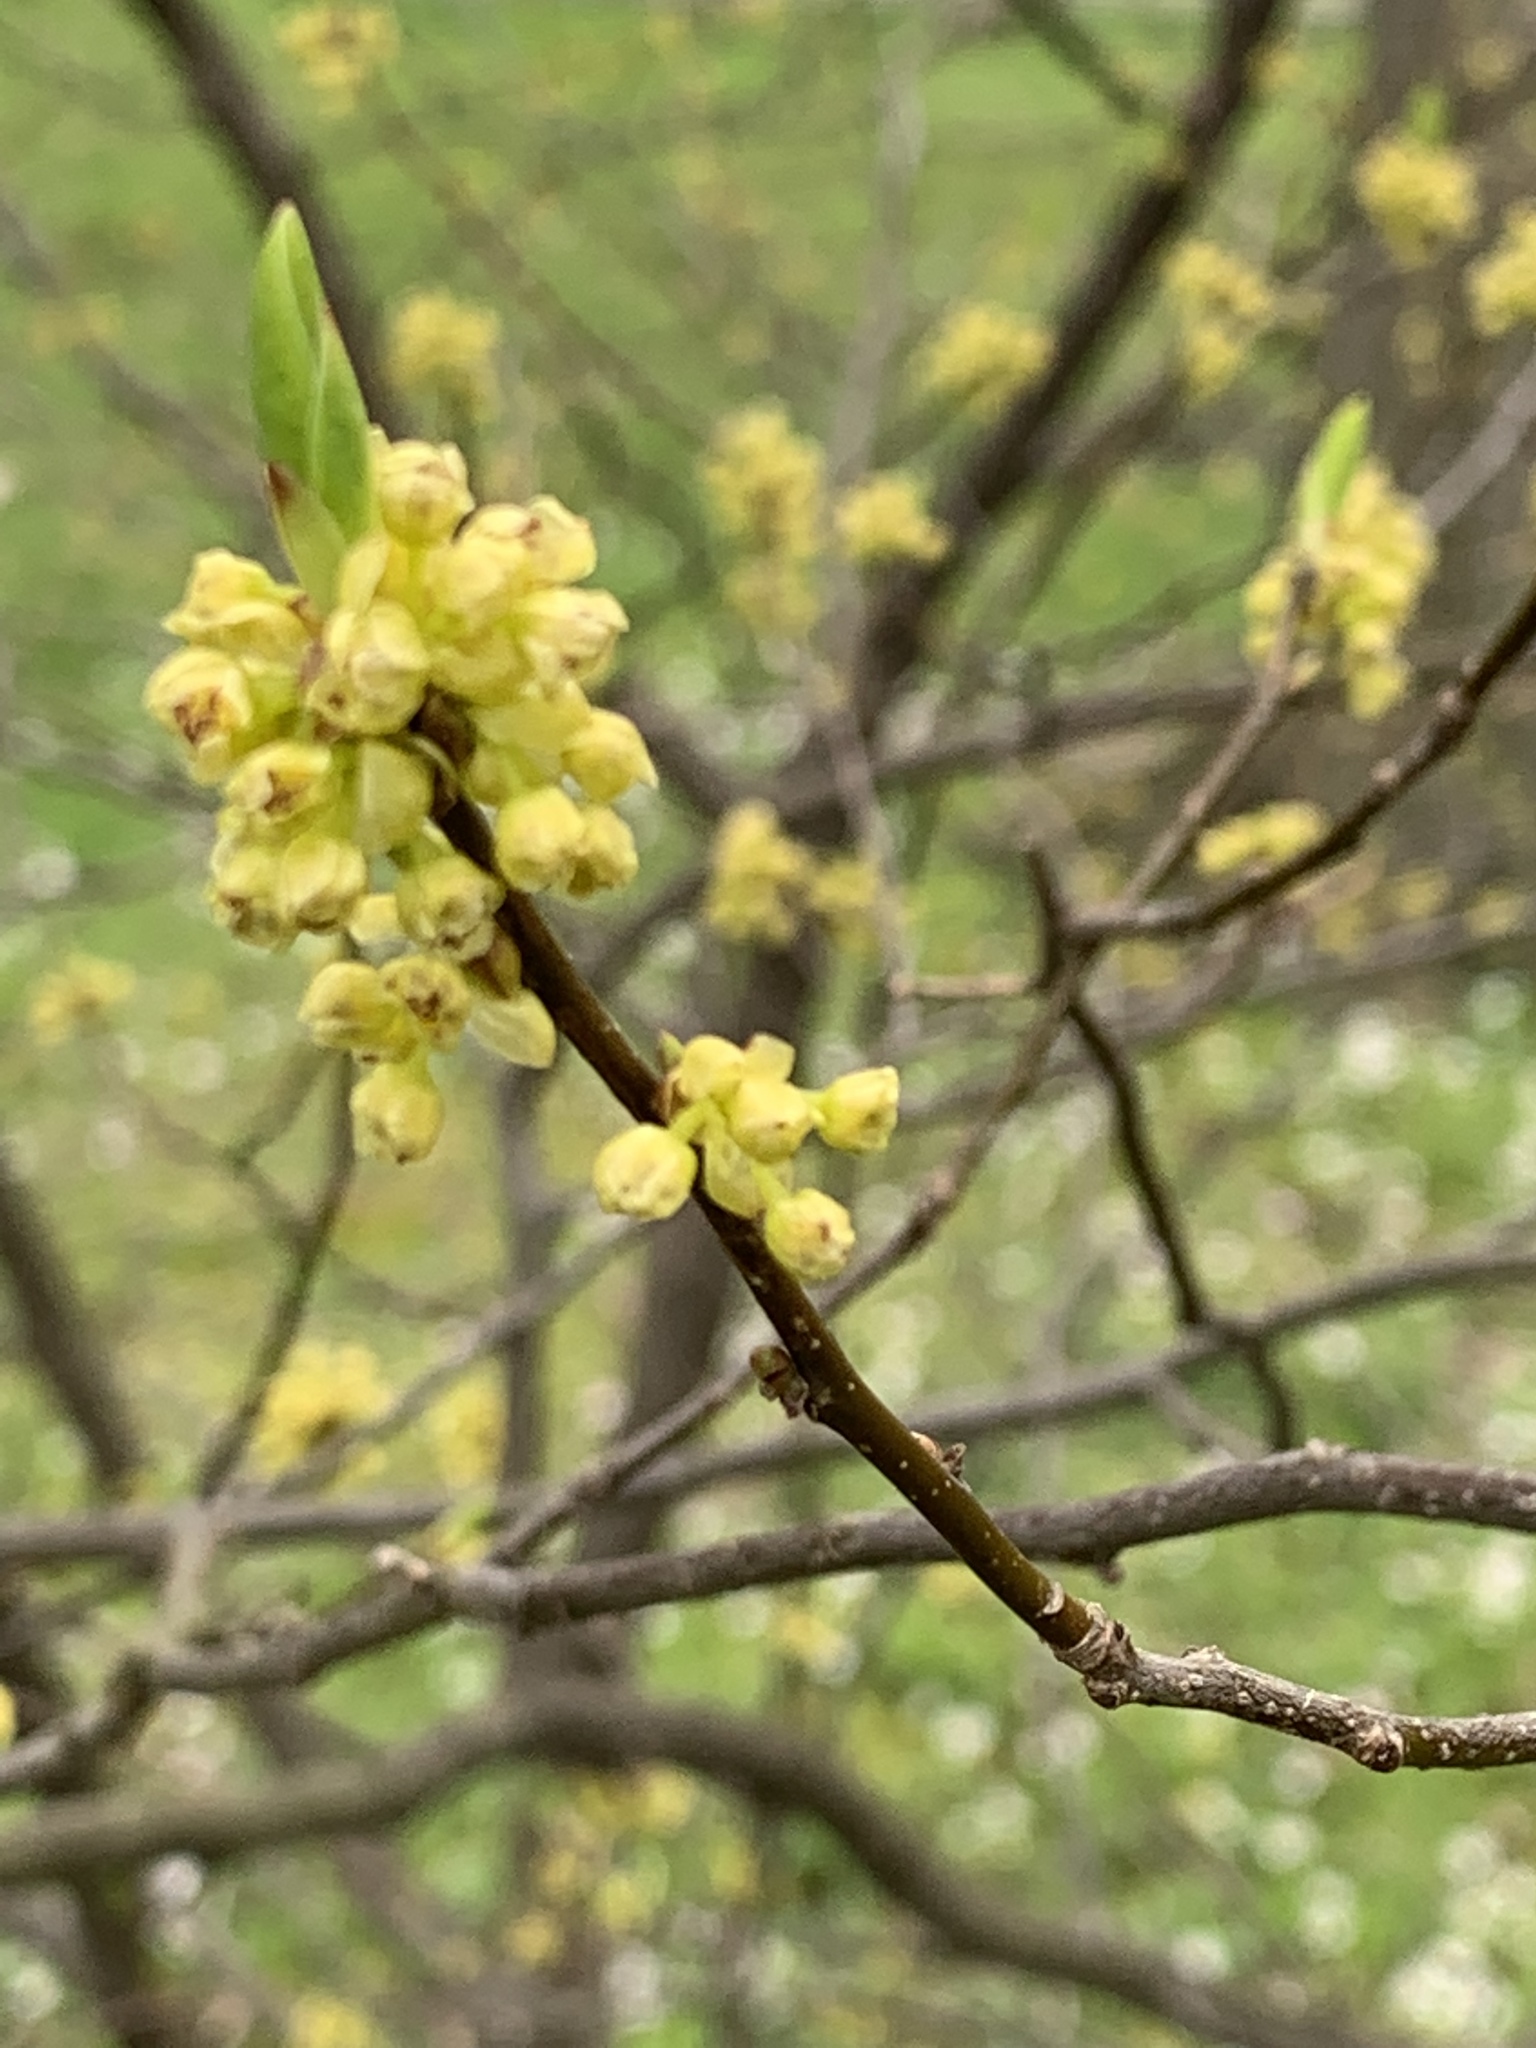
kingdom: Plantae
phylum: Tracheophyta
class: Magnoliopsida
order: Laurales
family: Lauraceae
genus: Lindera
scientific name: Lindera benzoin
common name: Spicebush
